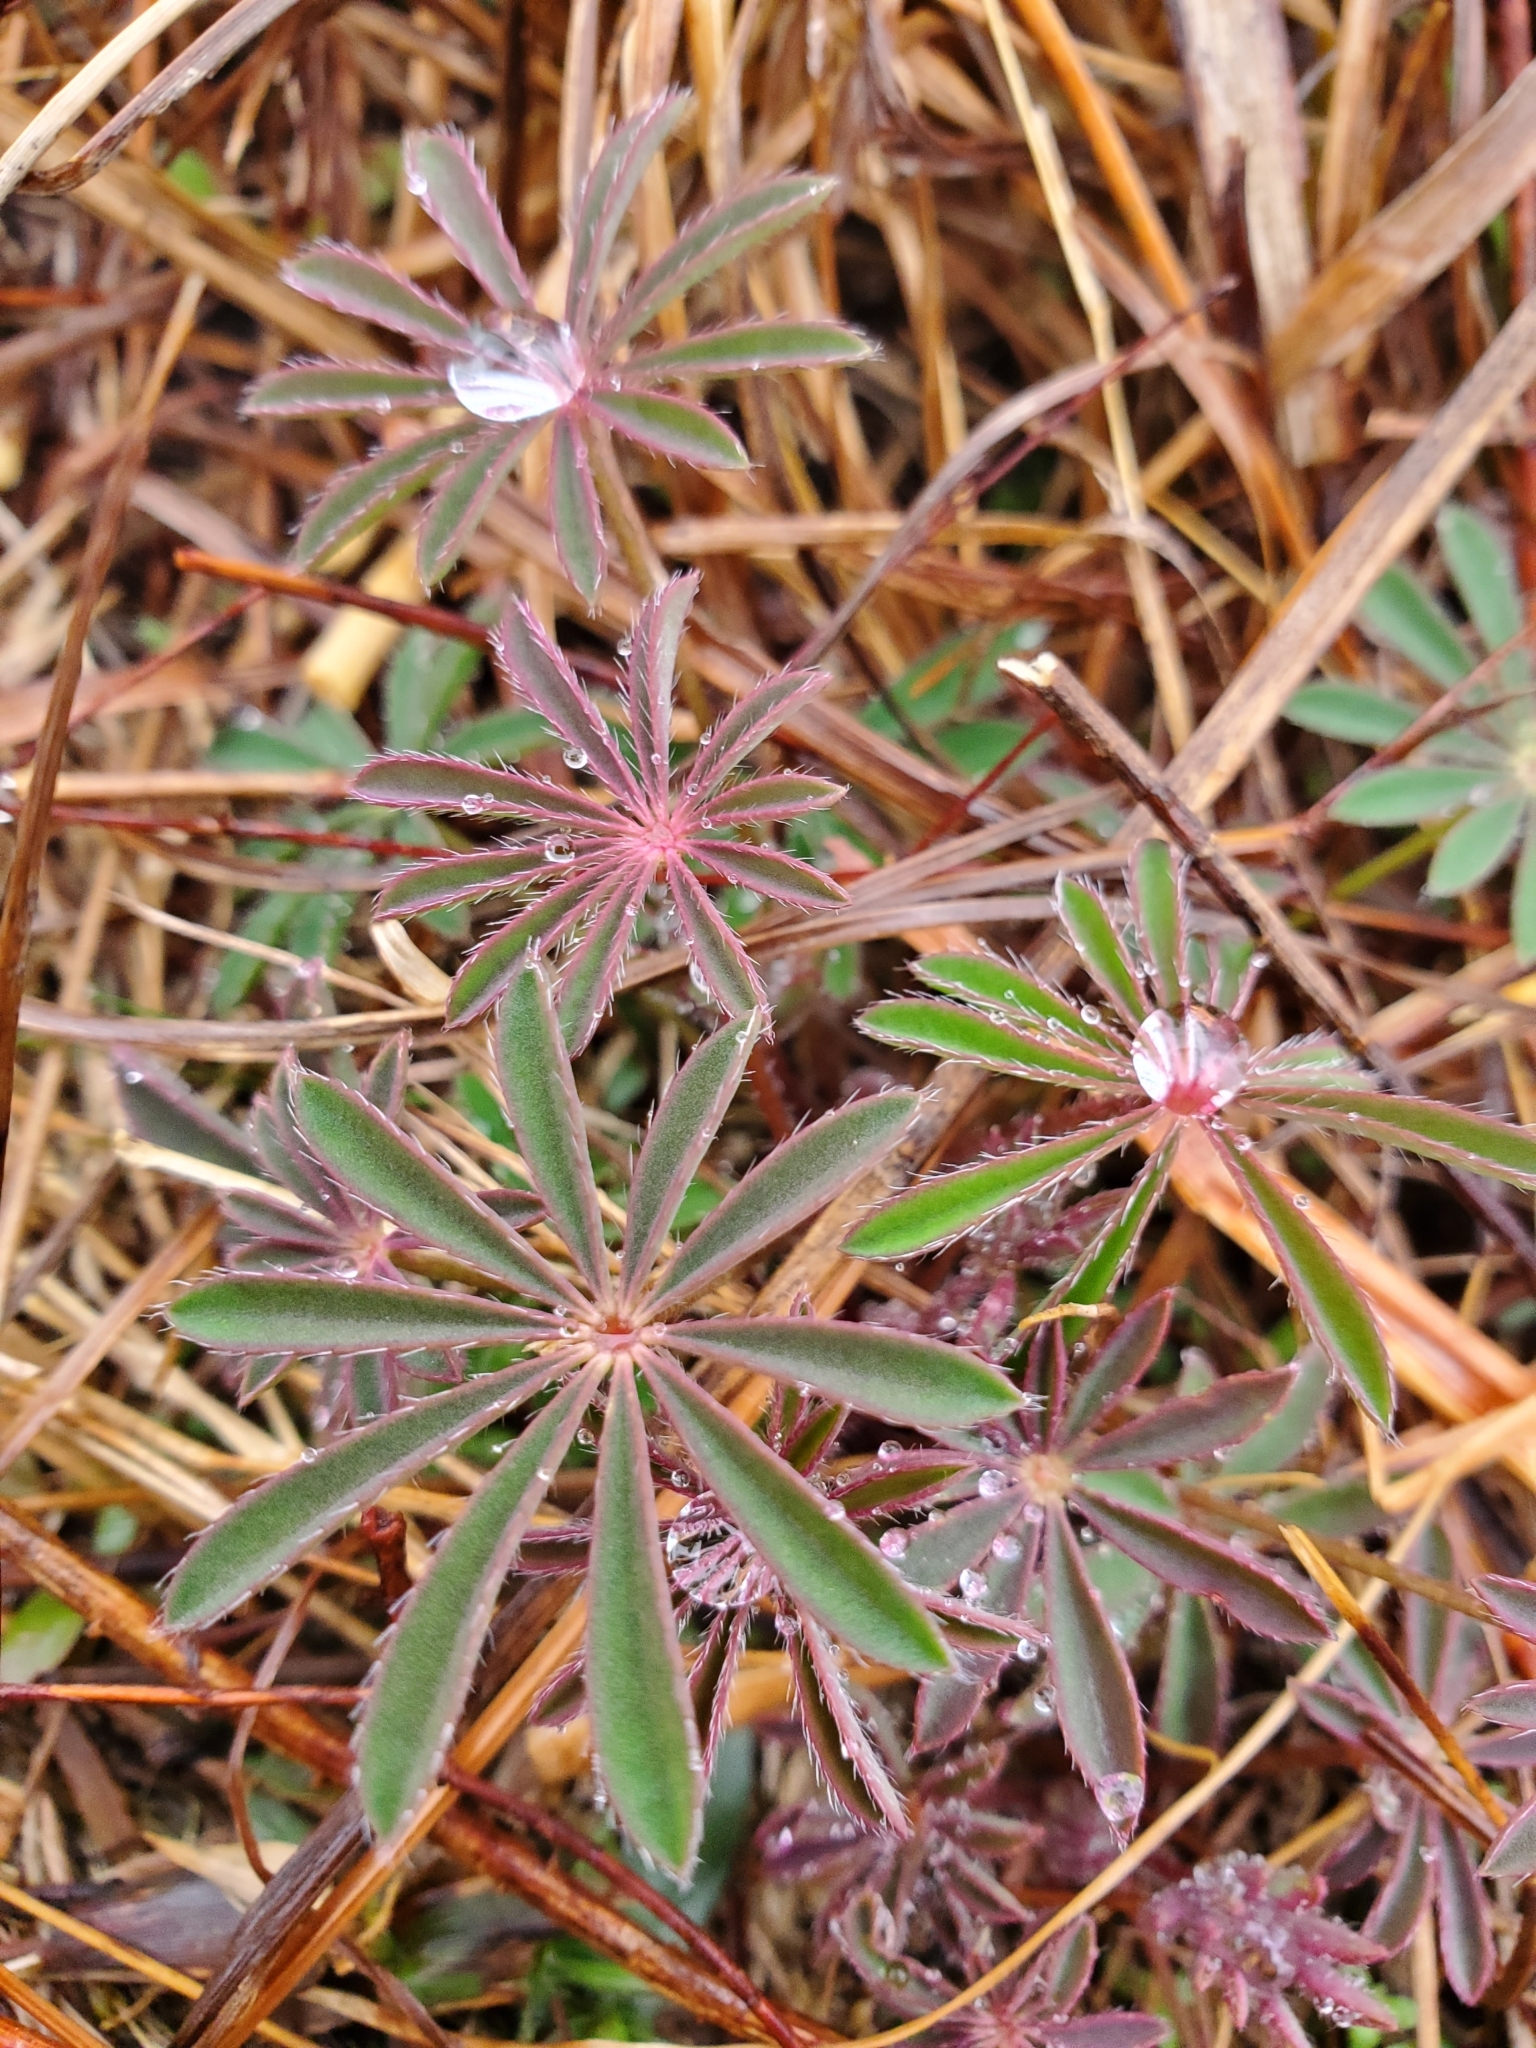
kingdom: Plantae
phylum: Tracheophyta
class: Magnoliopsida
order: Fabales
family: Fabaceae
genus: Lupinus
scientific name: Lupinus perennis
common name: Sundial lupine
